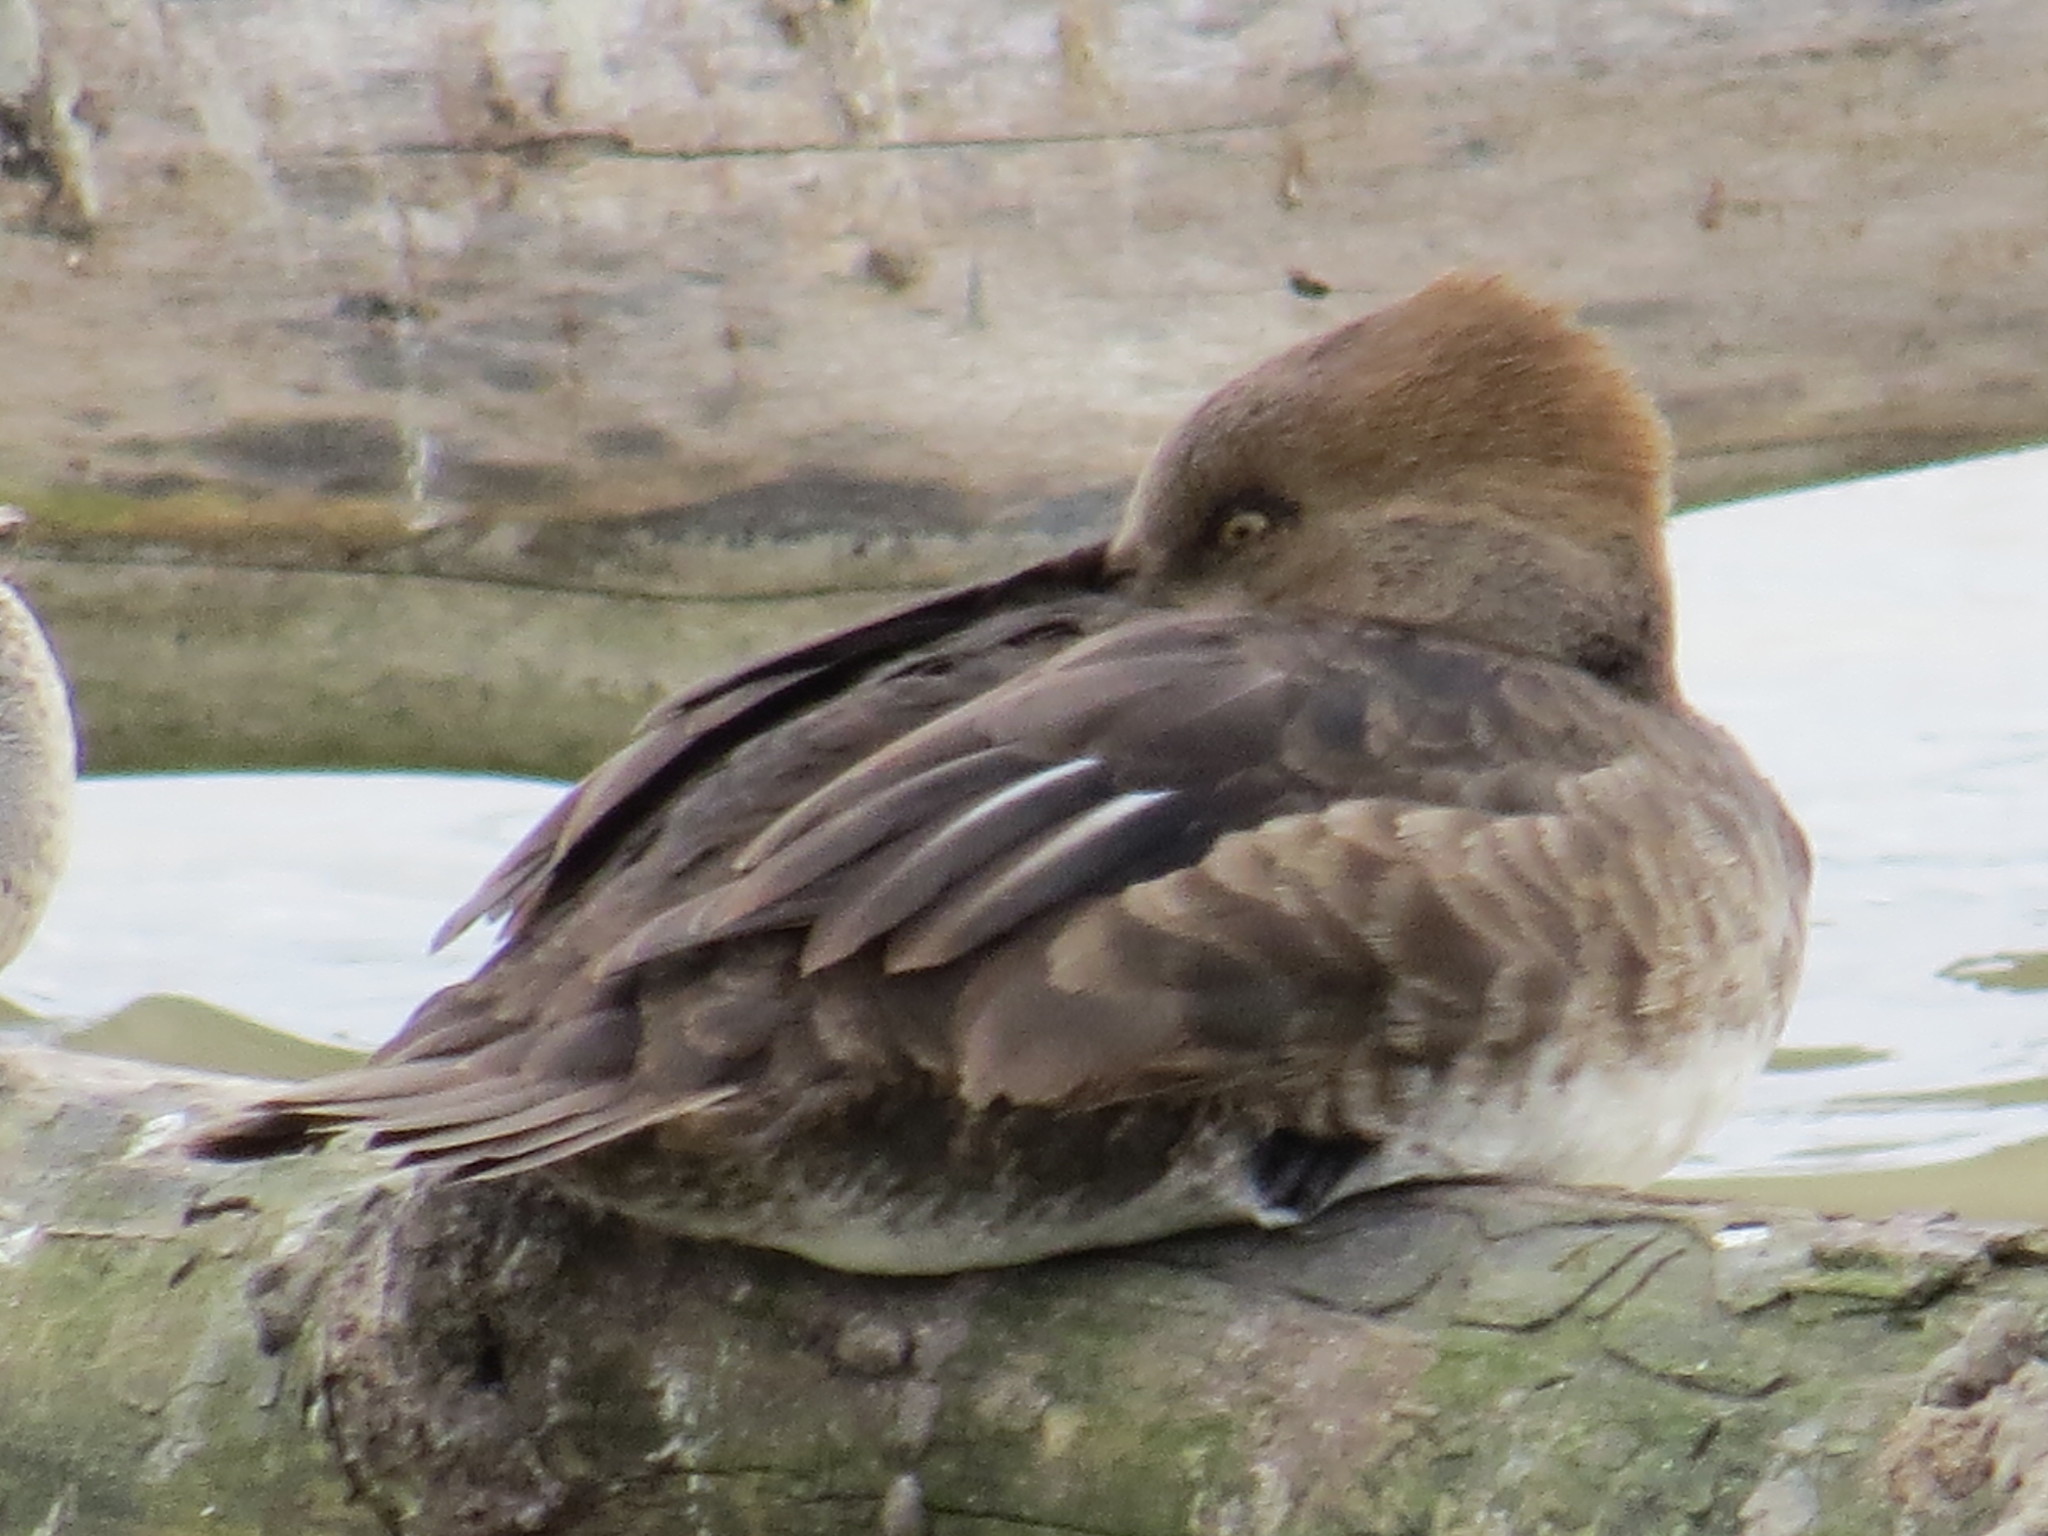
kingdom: Animalia
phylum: Chordata
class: Aves
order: Anseriformes
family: Anatidae
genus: Lophodytes
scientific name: Lophodytes cucullatus
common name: Hooded merganser
